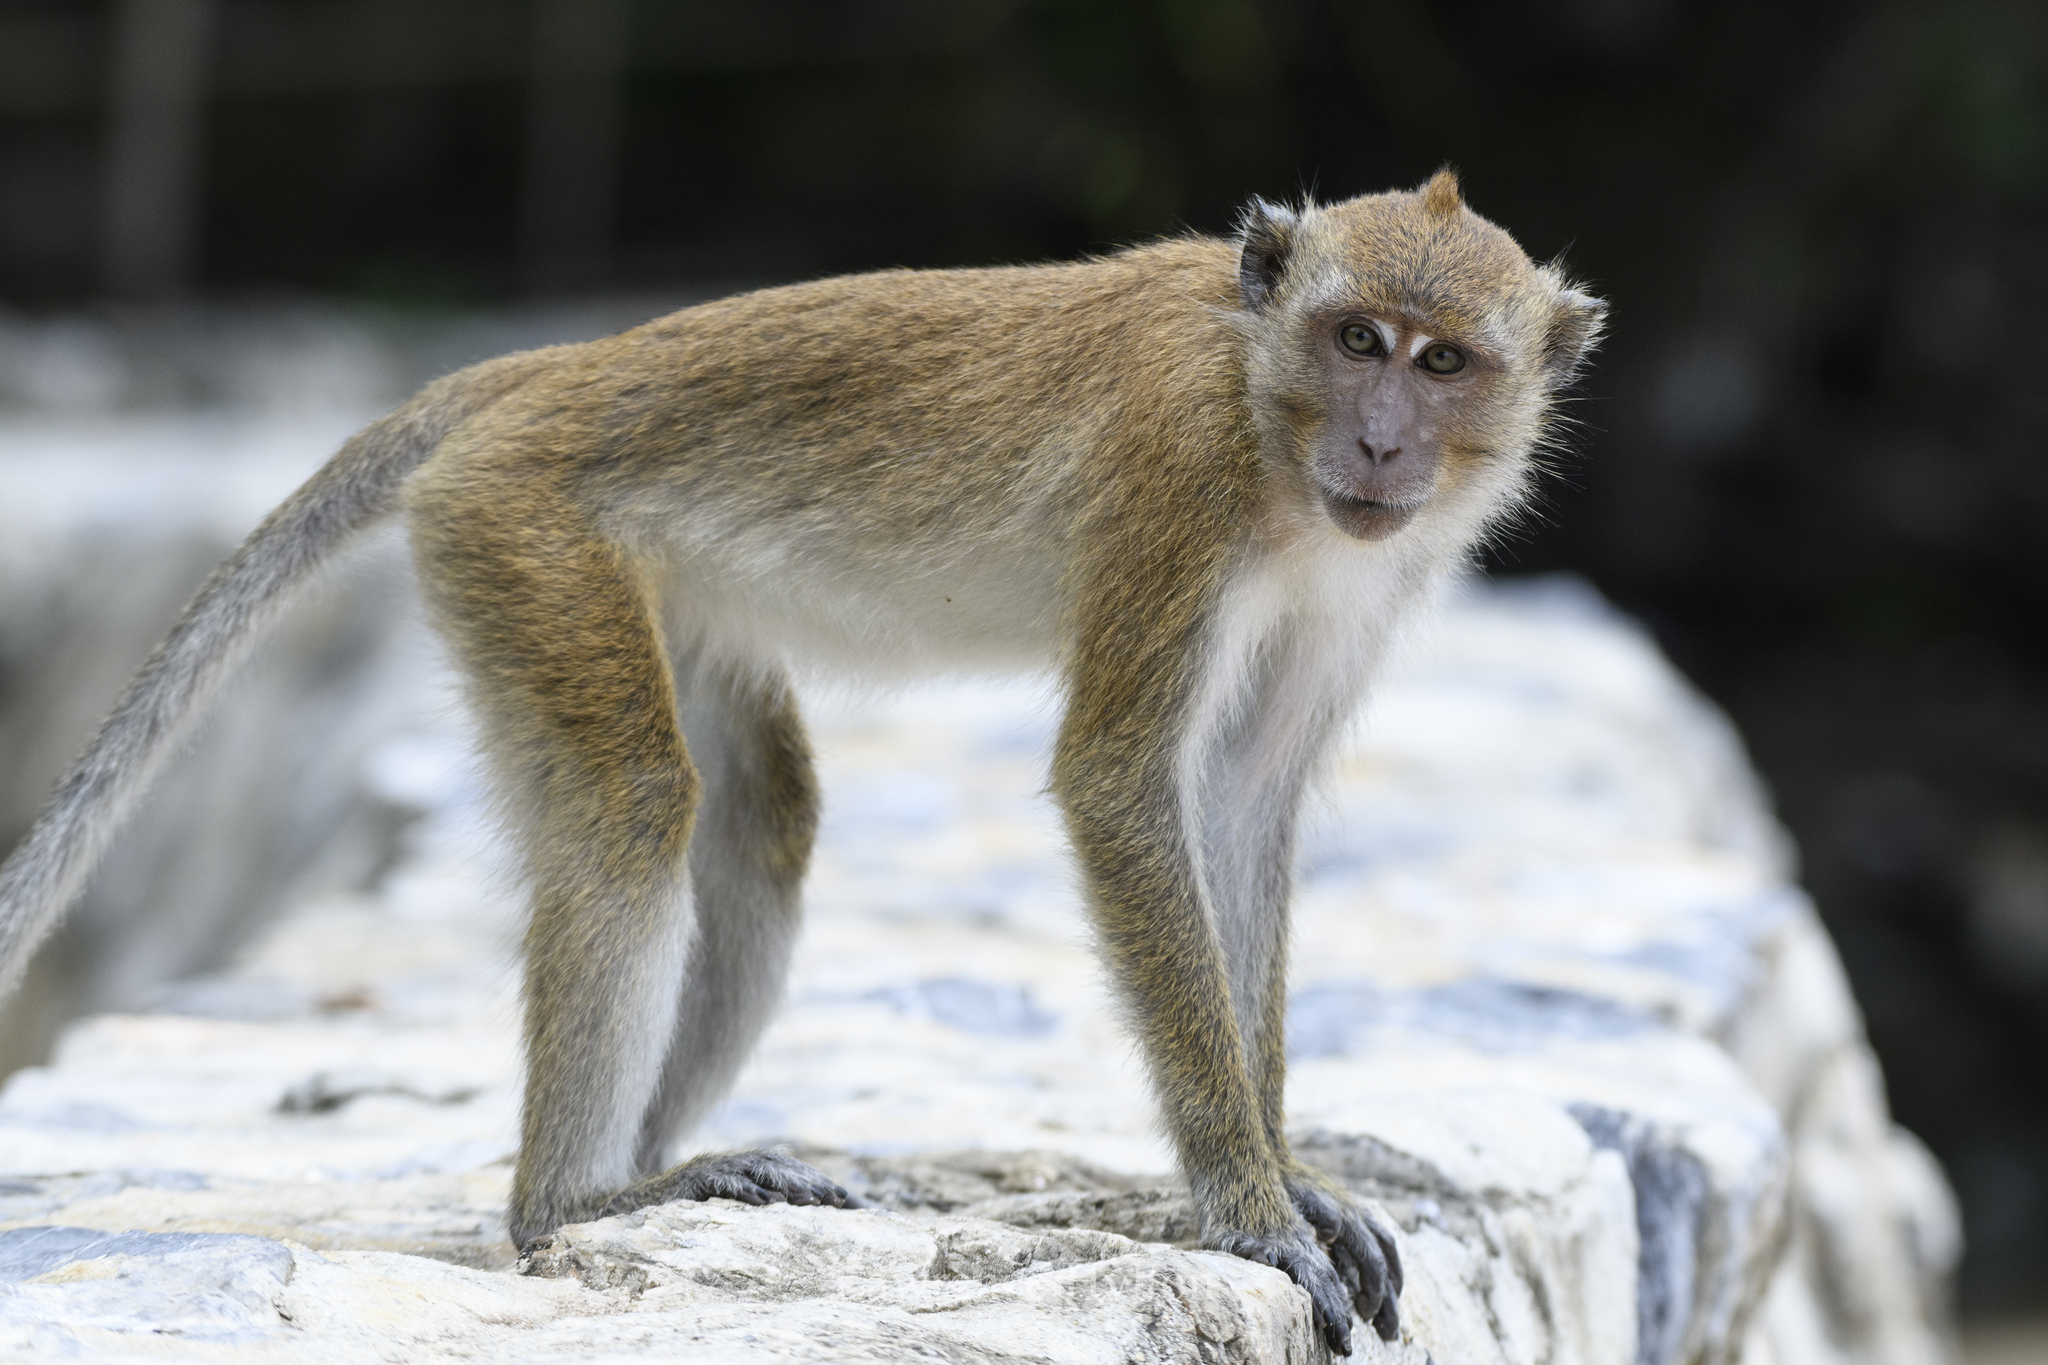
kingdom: Animalia
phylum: Chordata
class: Mammalia
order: Primates
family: Cercopithecidae
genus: Macaca
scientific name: Macaca fascicularis
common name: Crab-eating macaque
